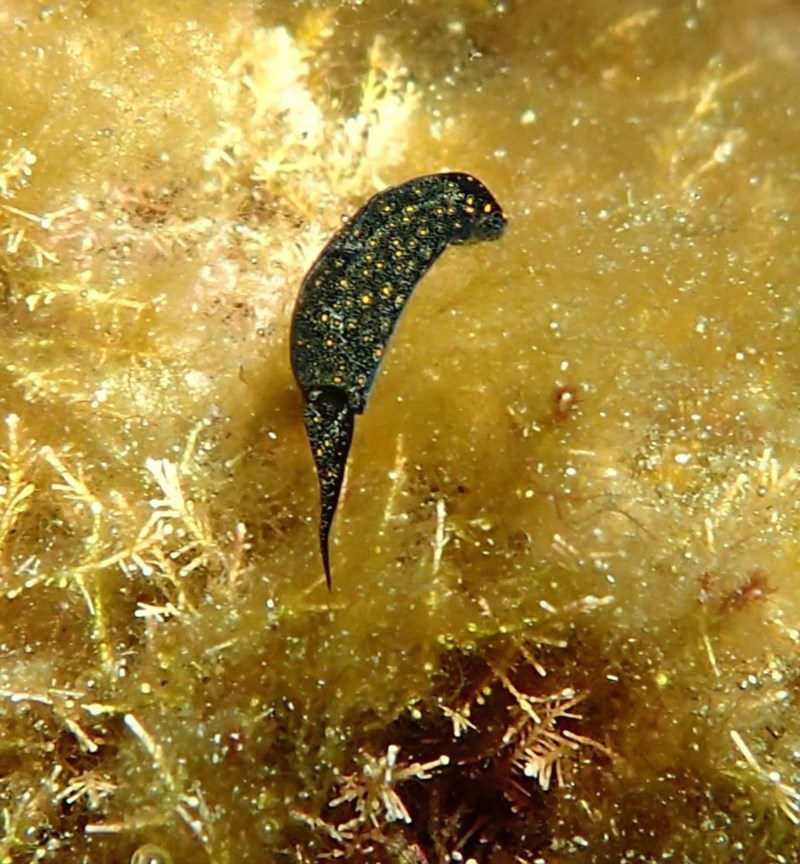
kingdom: Animalia
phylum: Mollusca
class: Gastropoda
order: Cephalaspidea
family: Aglajidae
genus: Mariaglaja
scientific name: Mariaglaja tsurugensis
